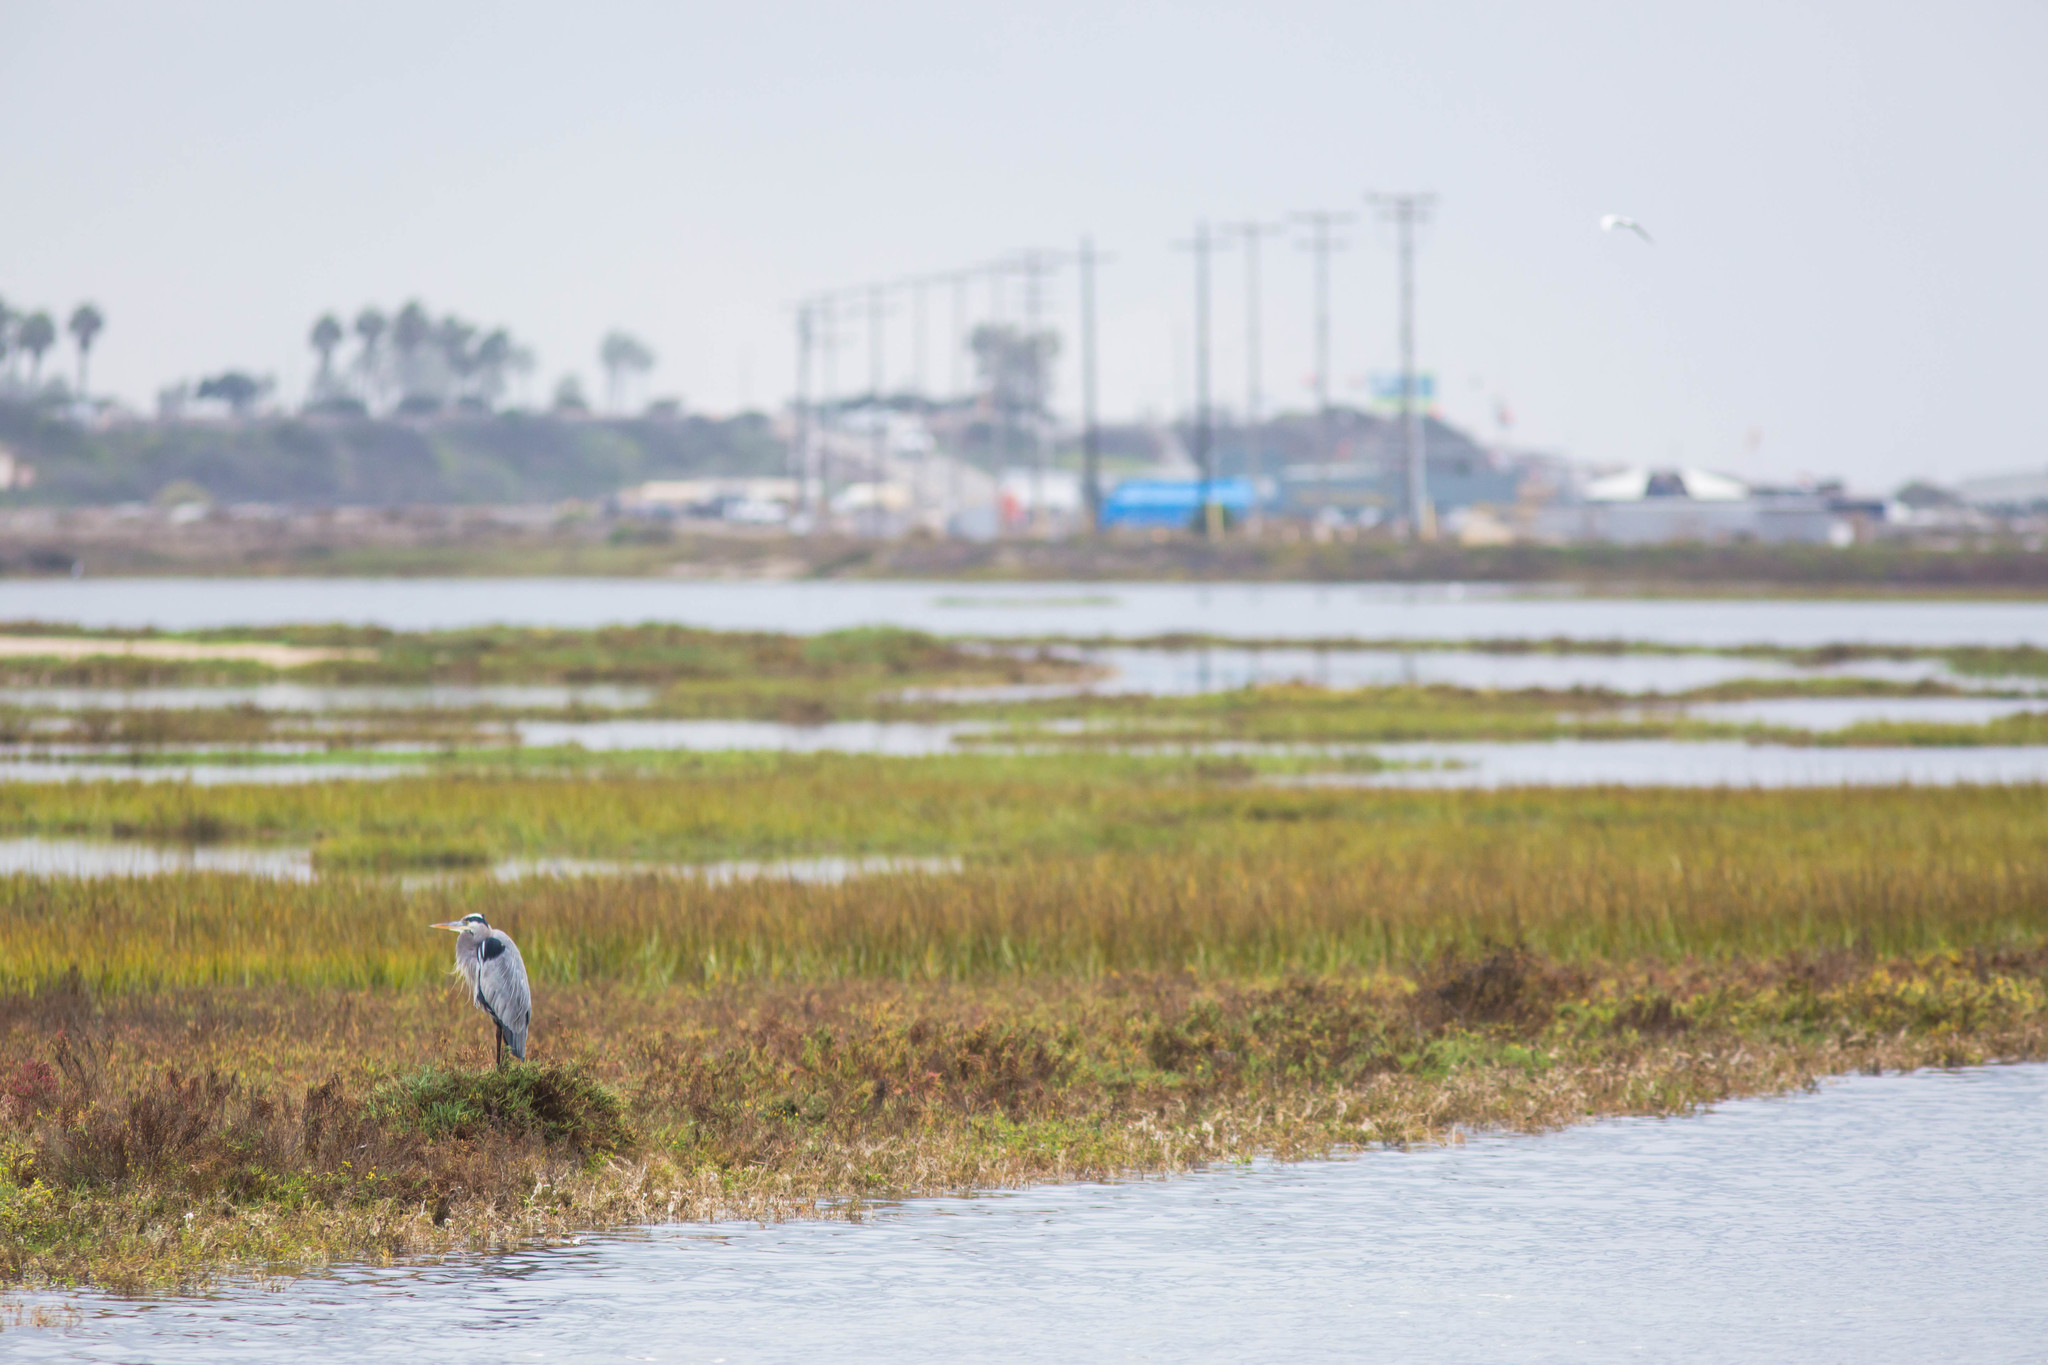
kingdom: Animalia
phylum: Chordata
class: Aves
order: Pelecaniformes
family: Ardeidae
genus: Ardea
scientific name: Ardea herodias
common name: Great blue heron
